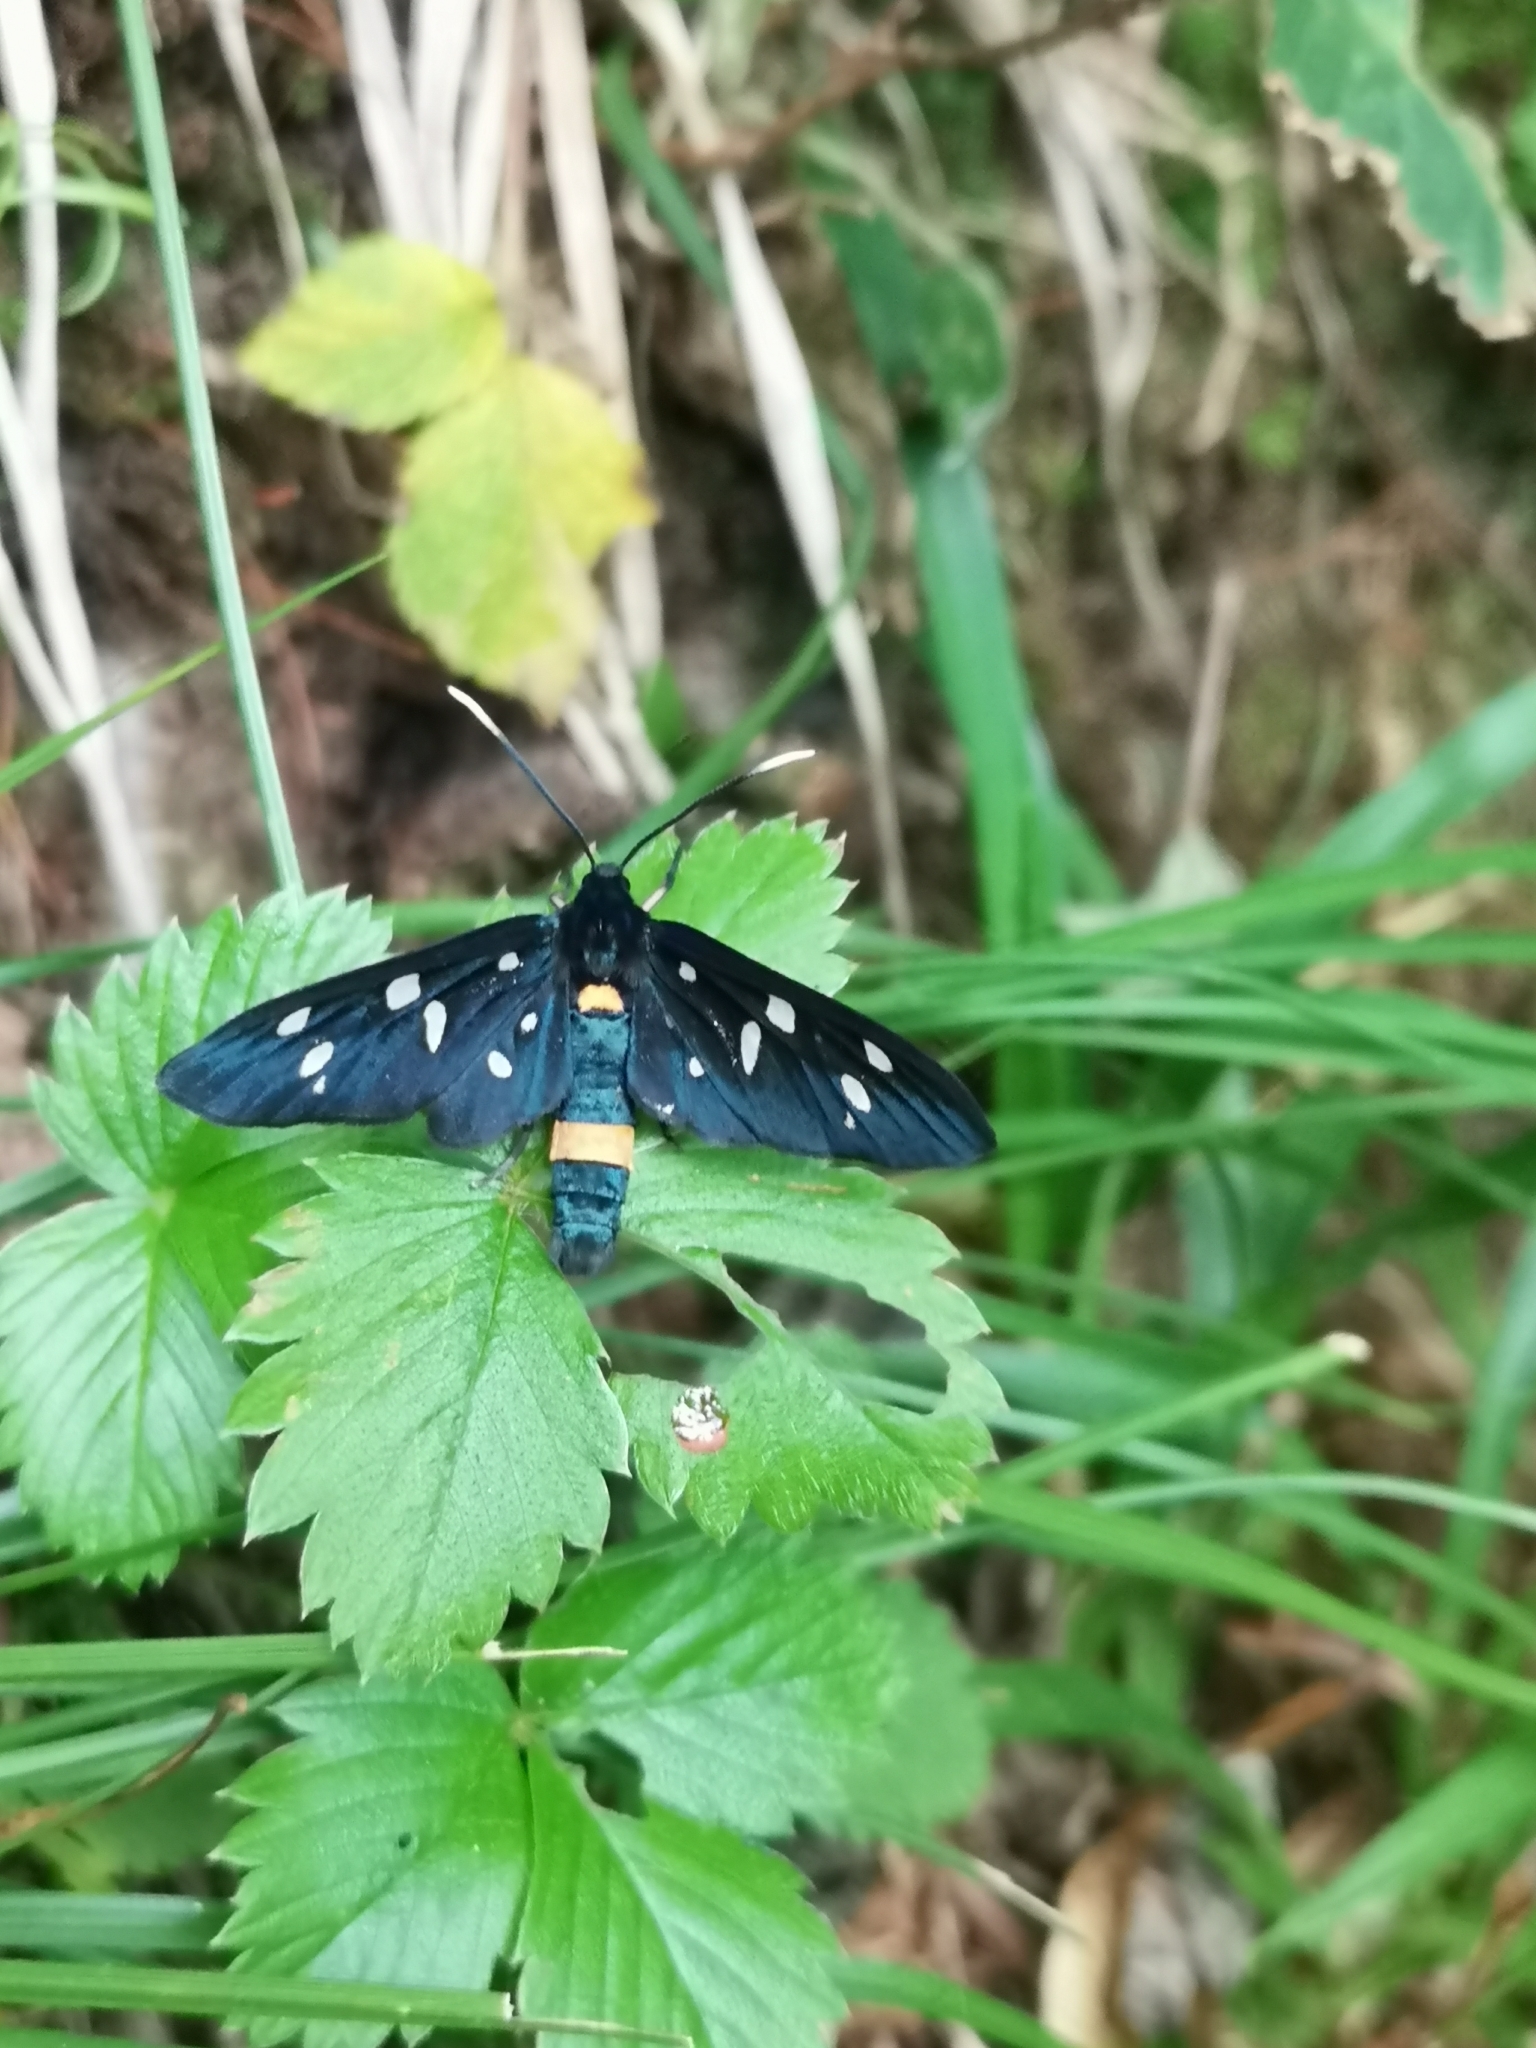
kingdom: Animalia
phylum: Arthropoda
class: Insecta
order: Lepidoptera
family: Erebidae
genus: Amata
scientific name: Amata phegea
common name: Nine-spotted
